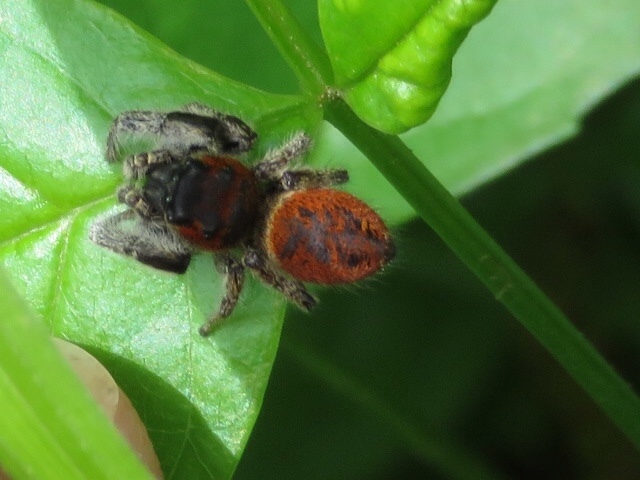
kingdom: Animalia
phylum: Arthropoda
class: Arachnida
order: Araneae
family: Salticidae
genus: Phidippus
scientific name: Phidippus whitmani
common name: Whitman's jumping spider
